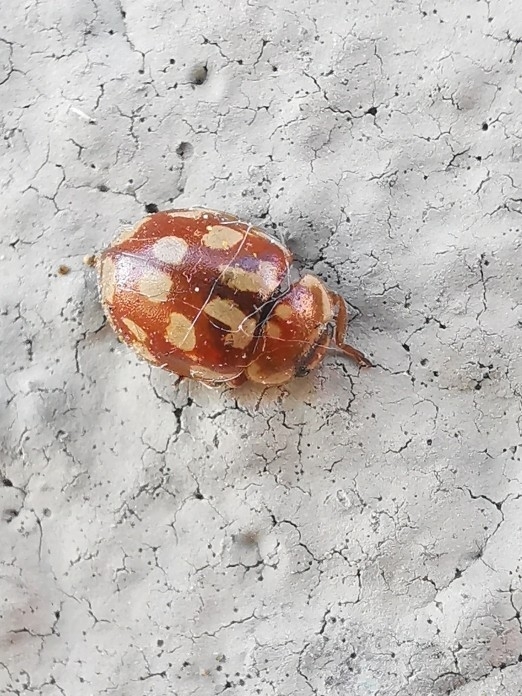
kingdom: Animalia
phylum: Arthropoda
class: Insecta
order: Coleoptera
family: Coccinellidae
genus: Myrrha
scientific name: Myrrha octodecimguttata
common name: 18-spot ladybird
